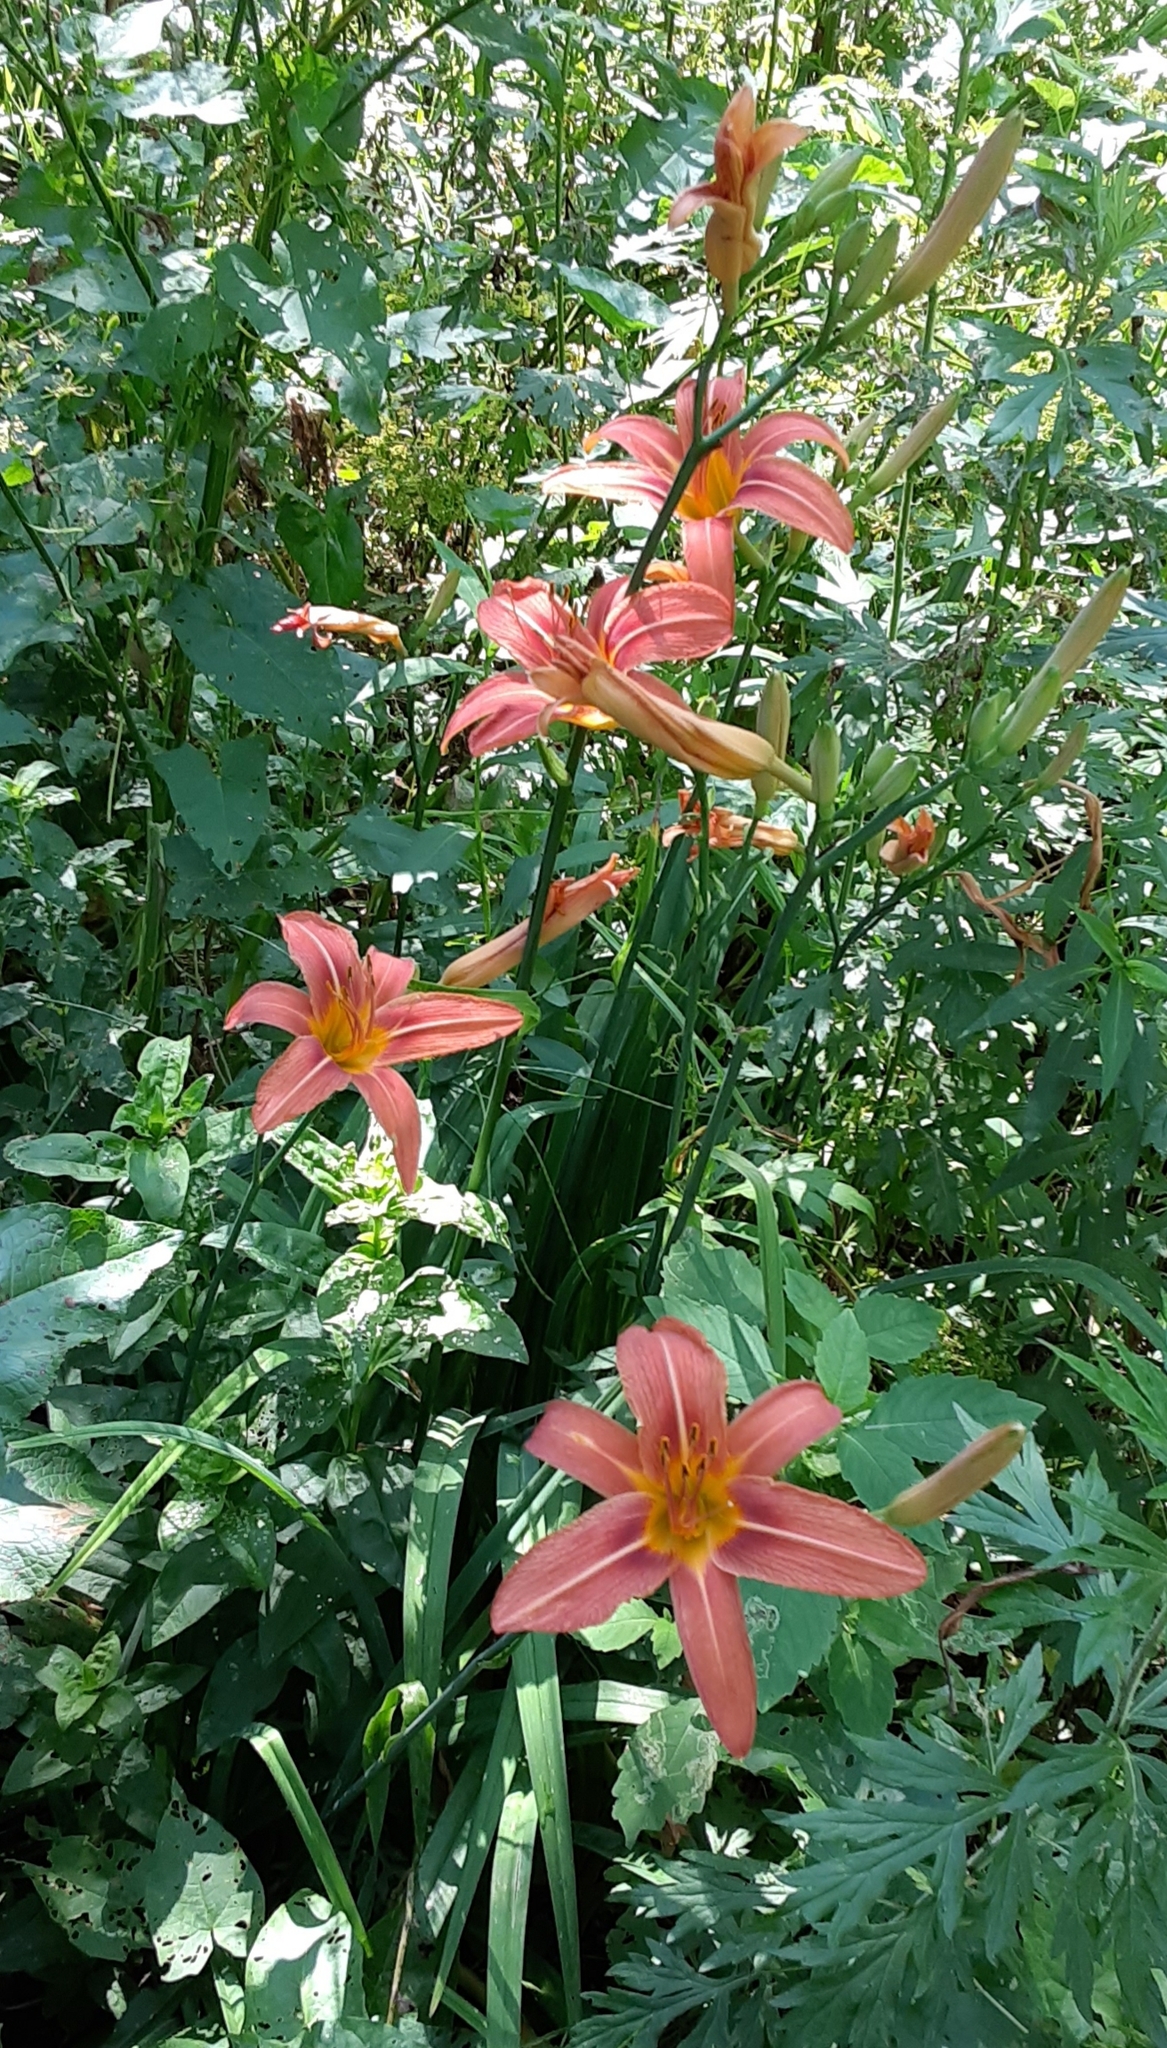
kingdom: Plantae
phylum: Tracheophyta
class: Liliopsida
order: Asparagales
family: Asphodelaceae
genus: Hemerocallis
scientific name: Hemerocallis fulva
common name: Orange day-lily
